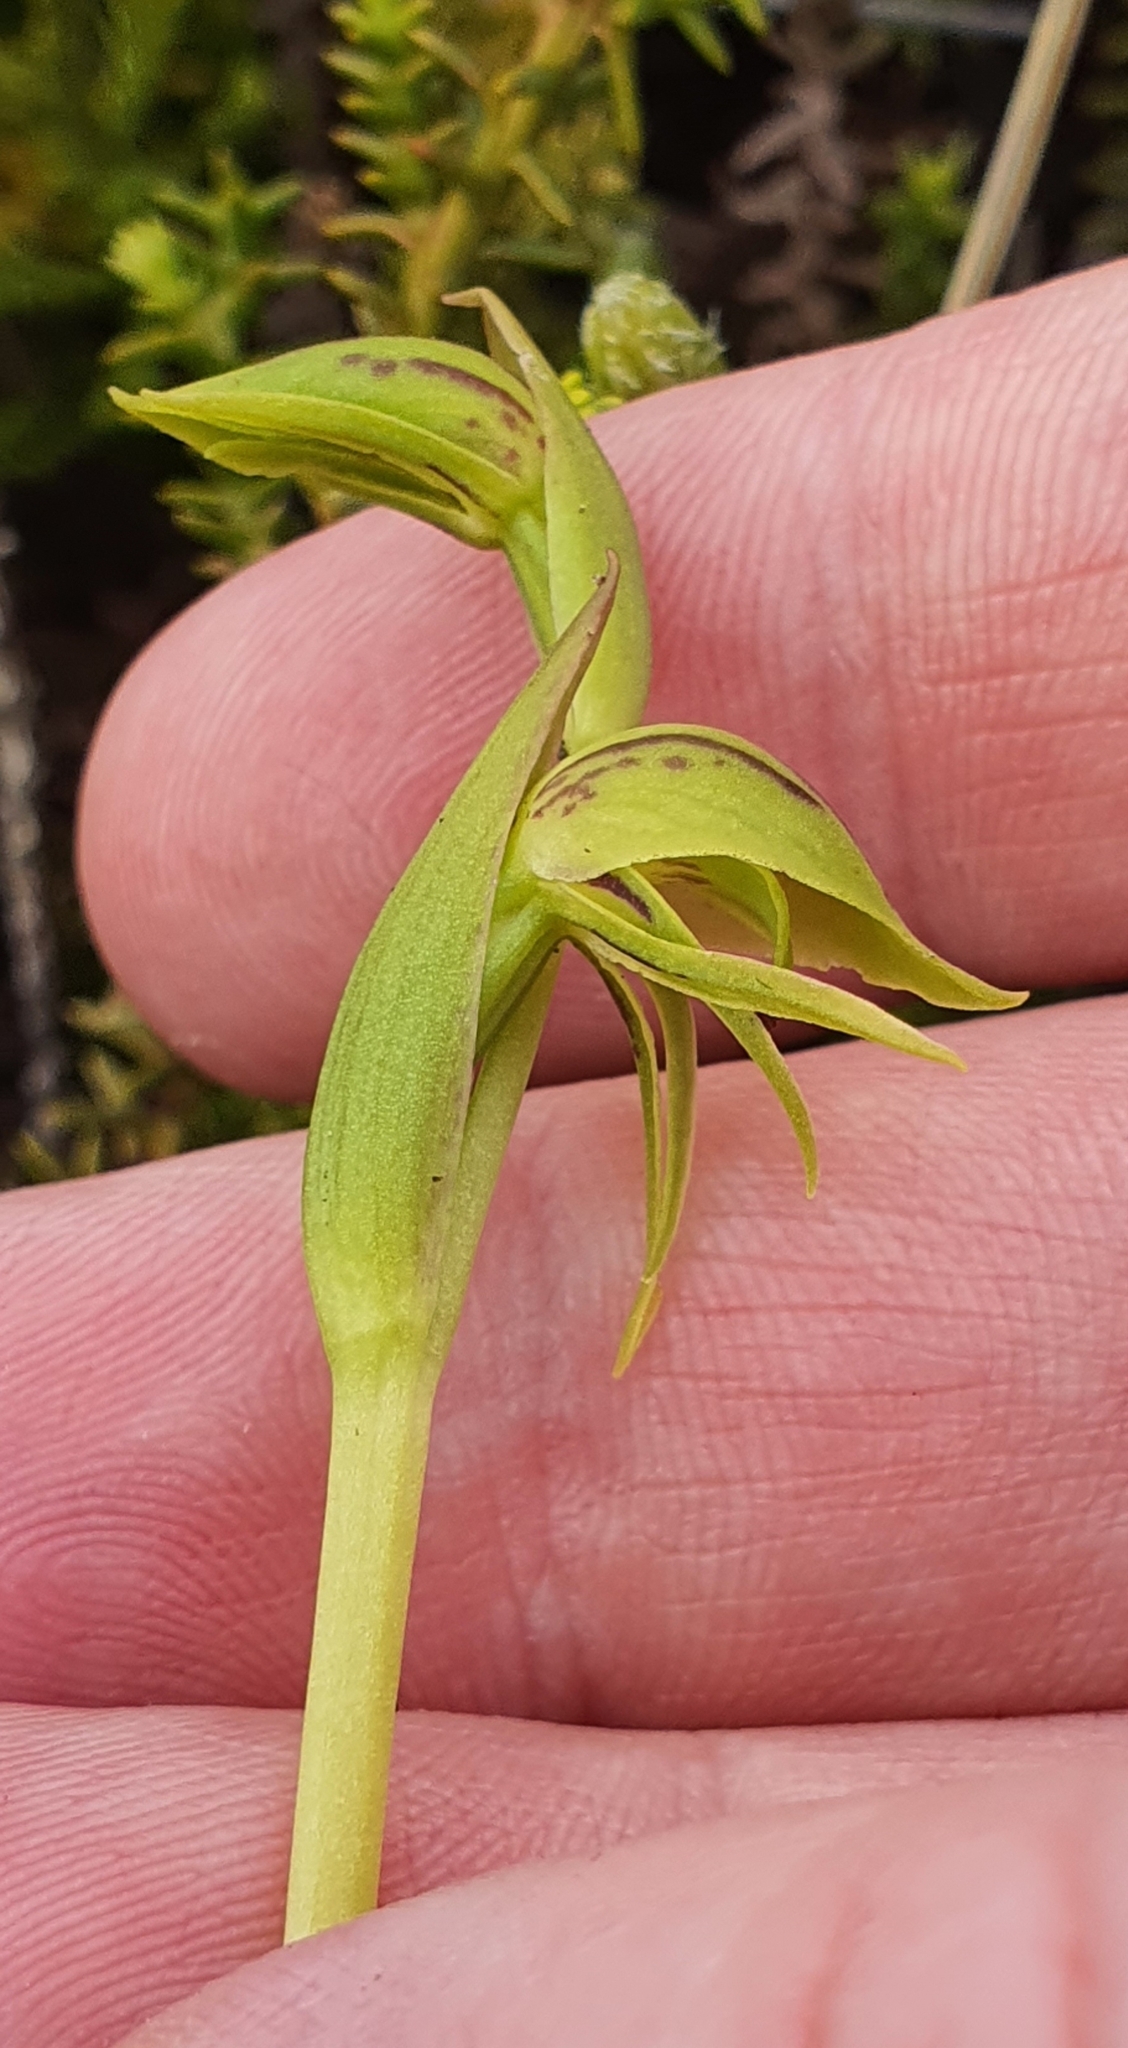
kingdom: Plantae
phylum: Tracheophyta
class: Liliopsida
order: Asparagales
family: Orchidaceae
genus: Waireia
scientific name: Waireia stenopetala
